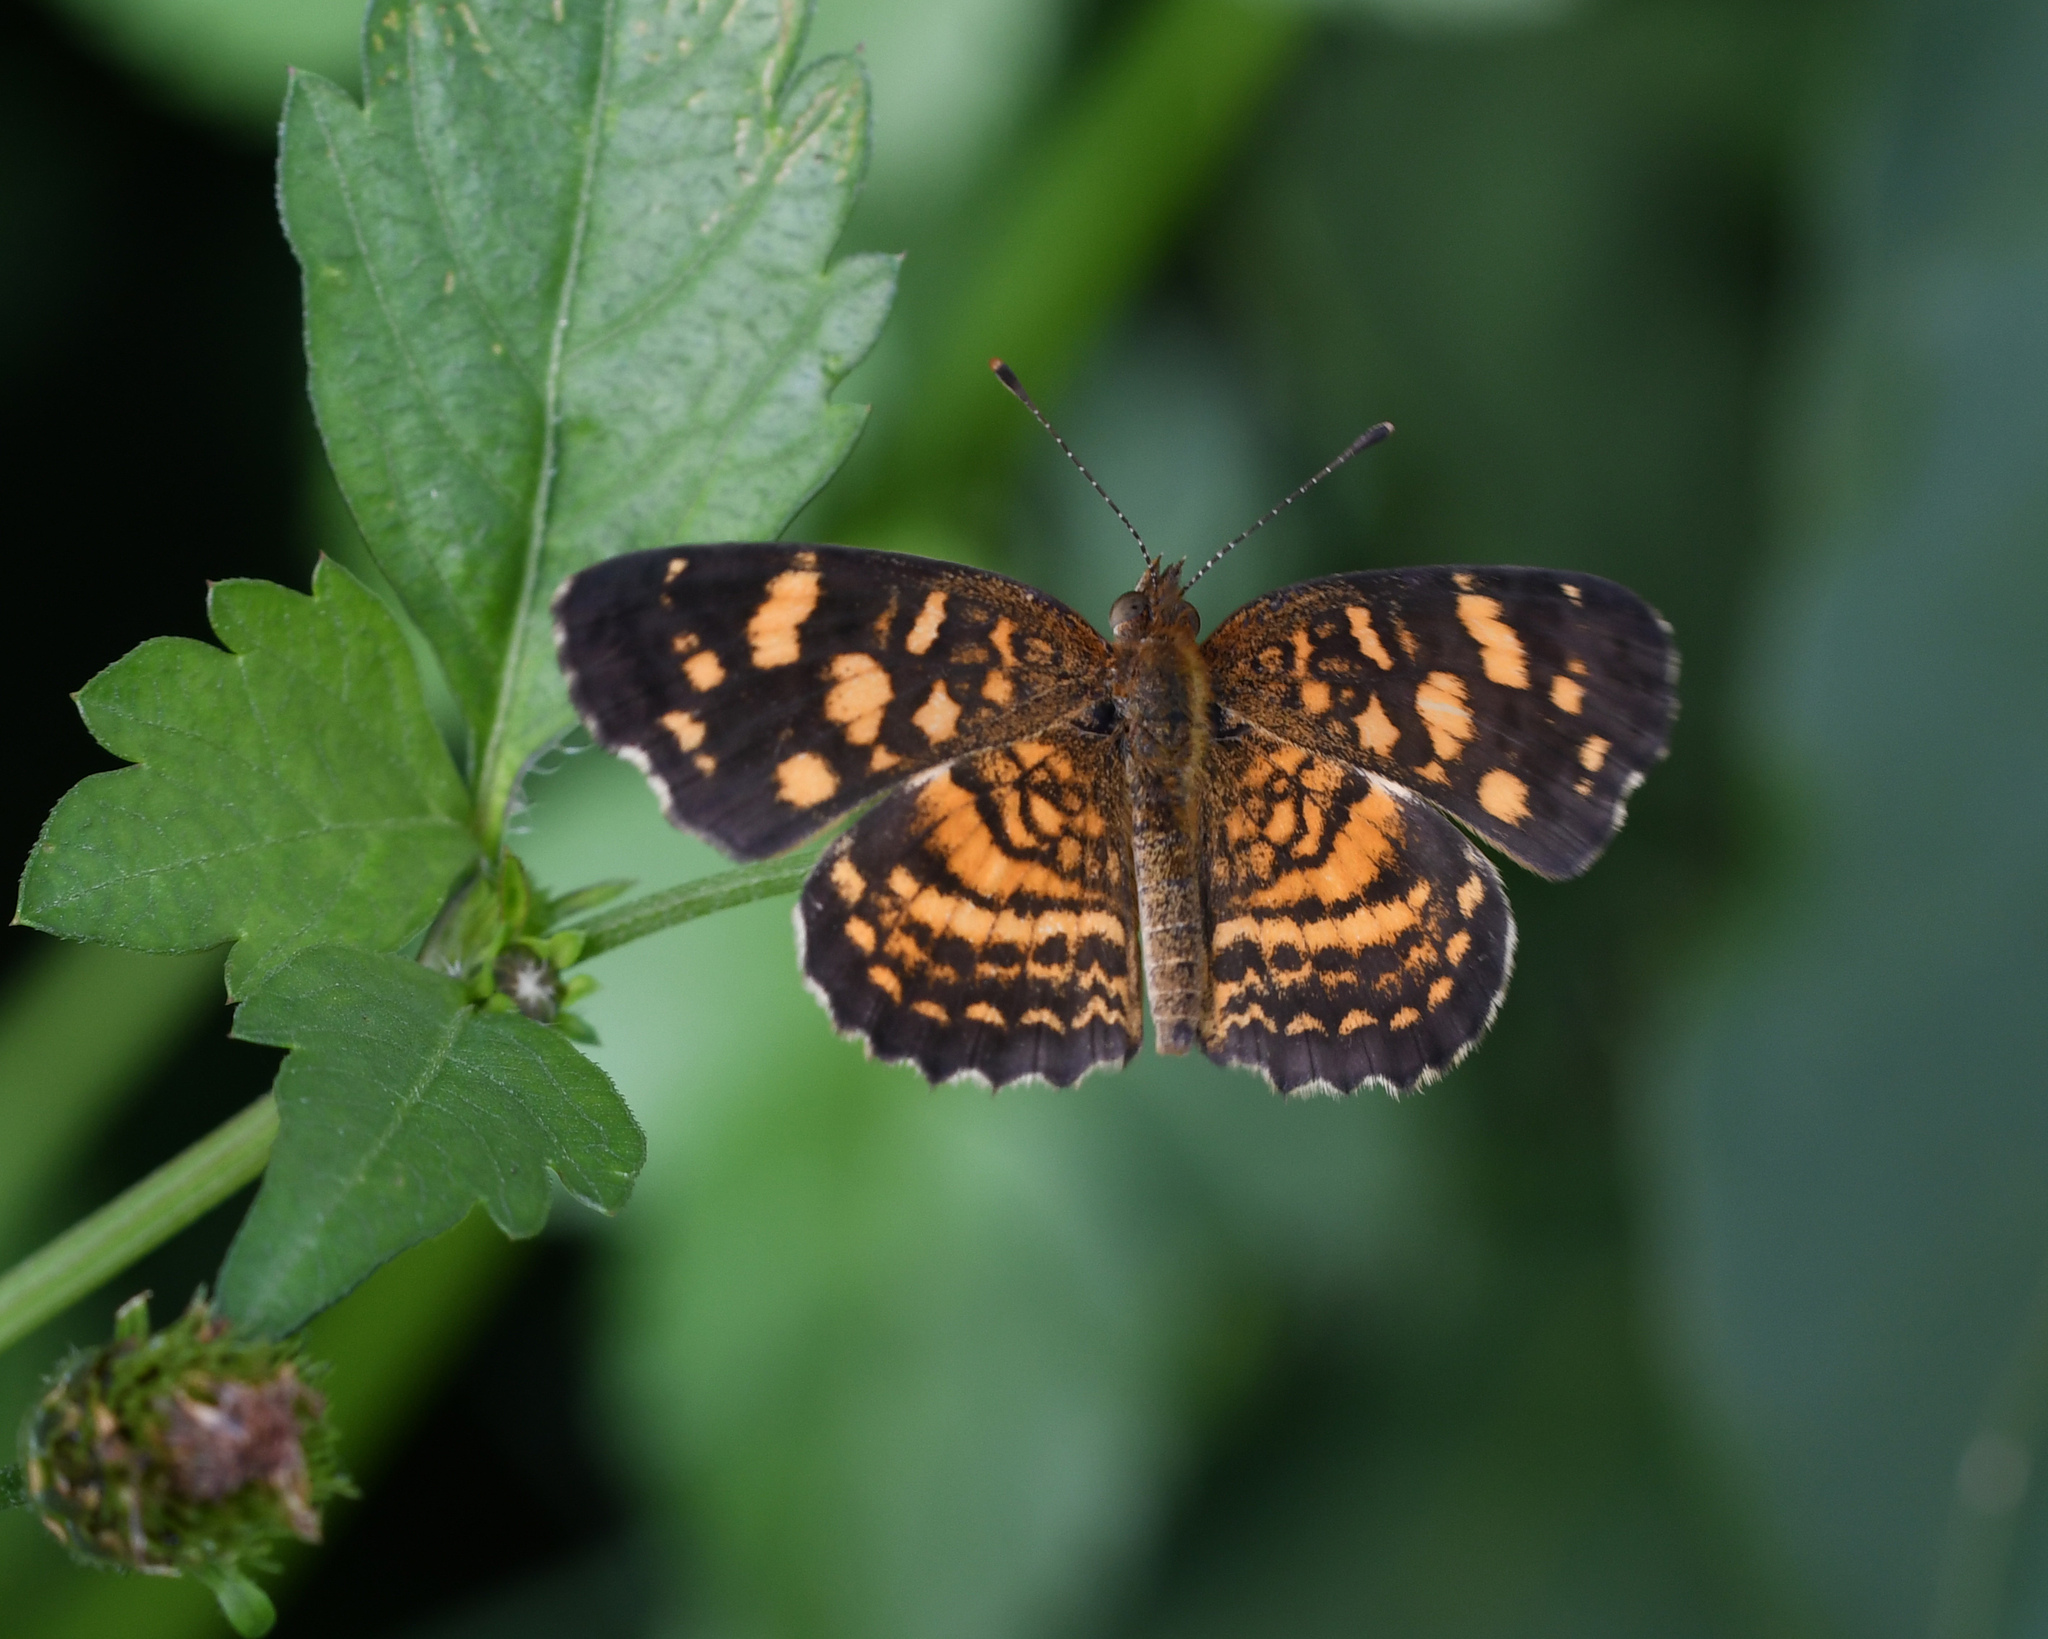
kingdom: Animalia
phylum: Arthropoda
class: Insecta
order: Lepidoptera
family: Nymphalidae
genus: Anthanassa
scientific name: Anthanassa frisia
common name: Cuban crescent
